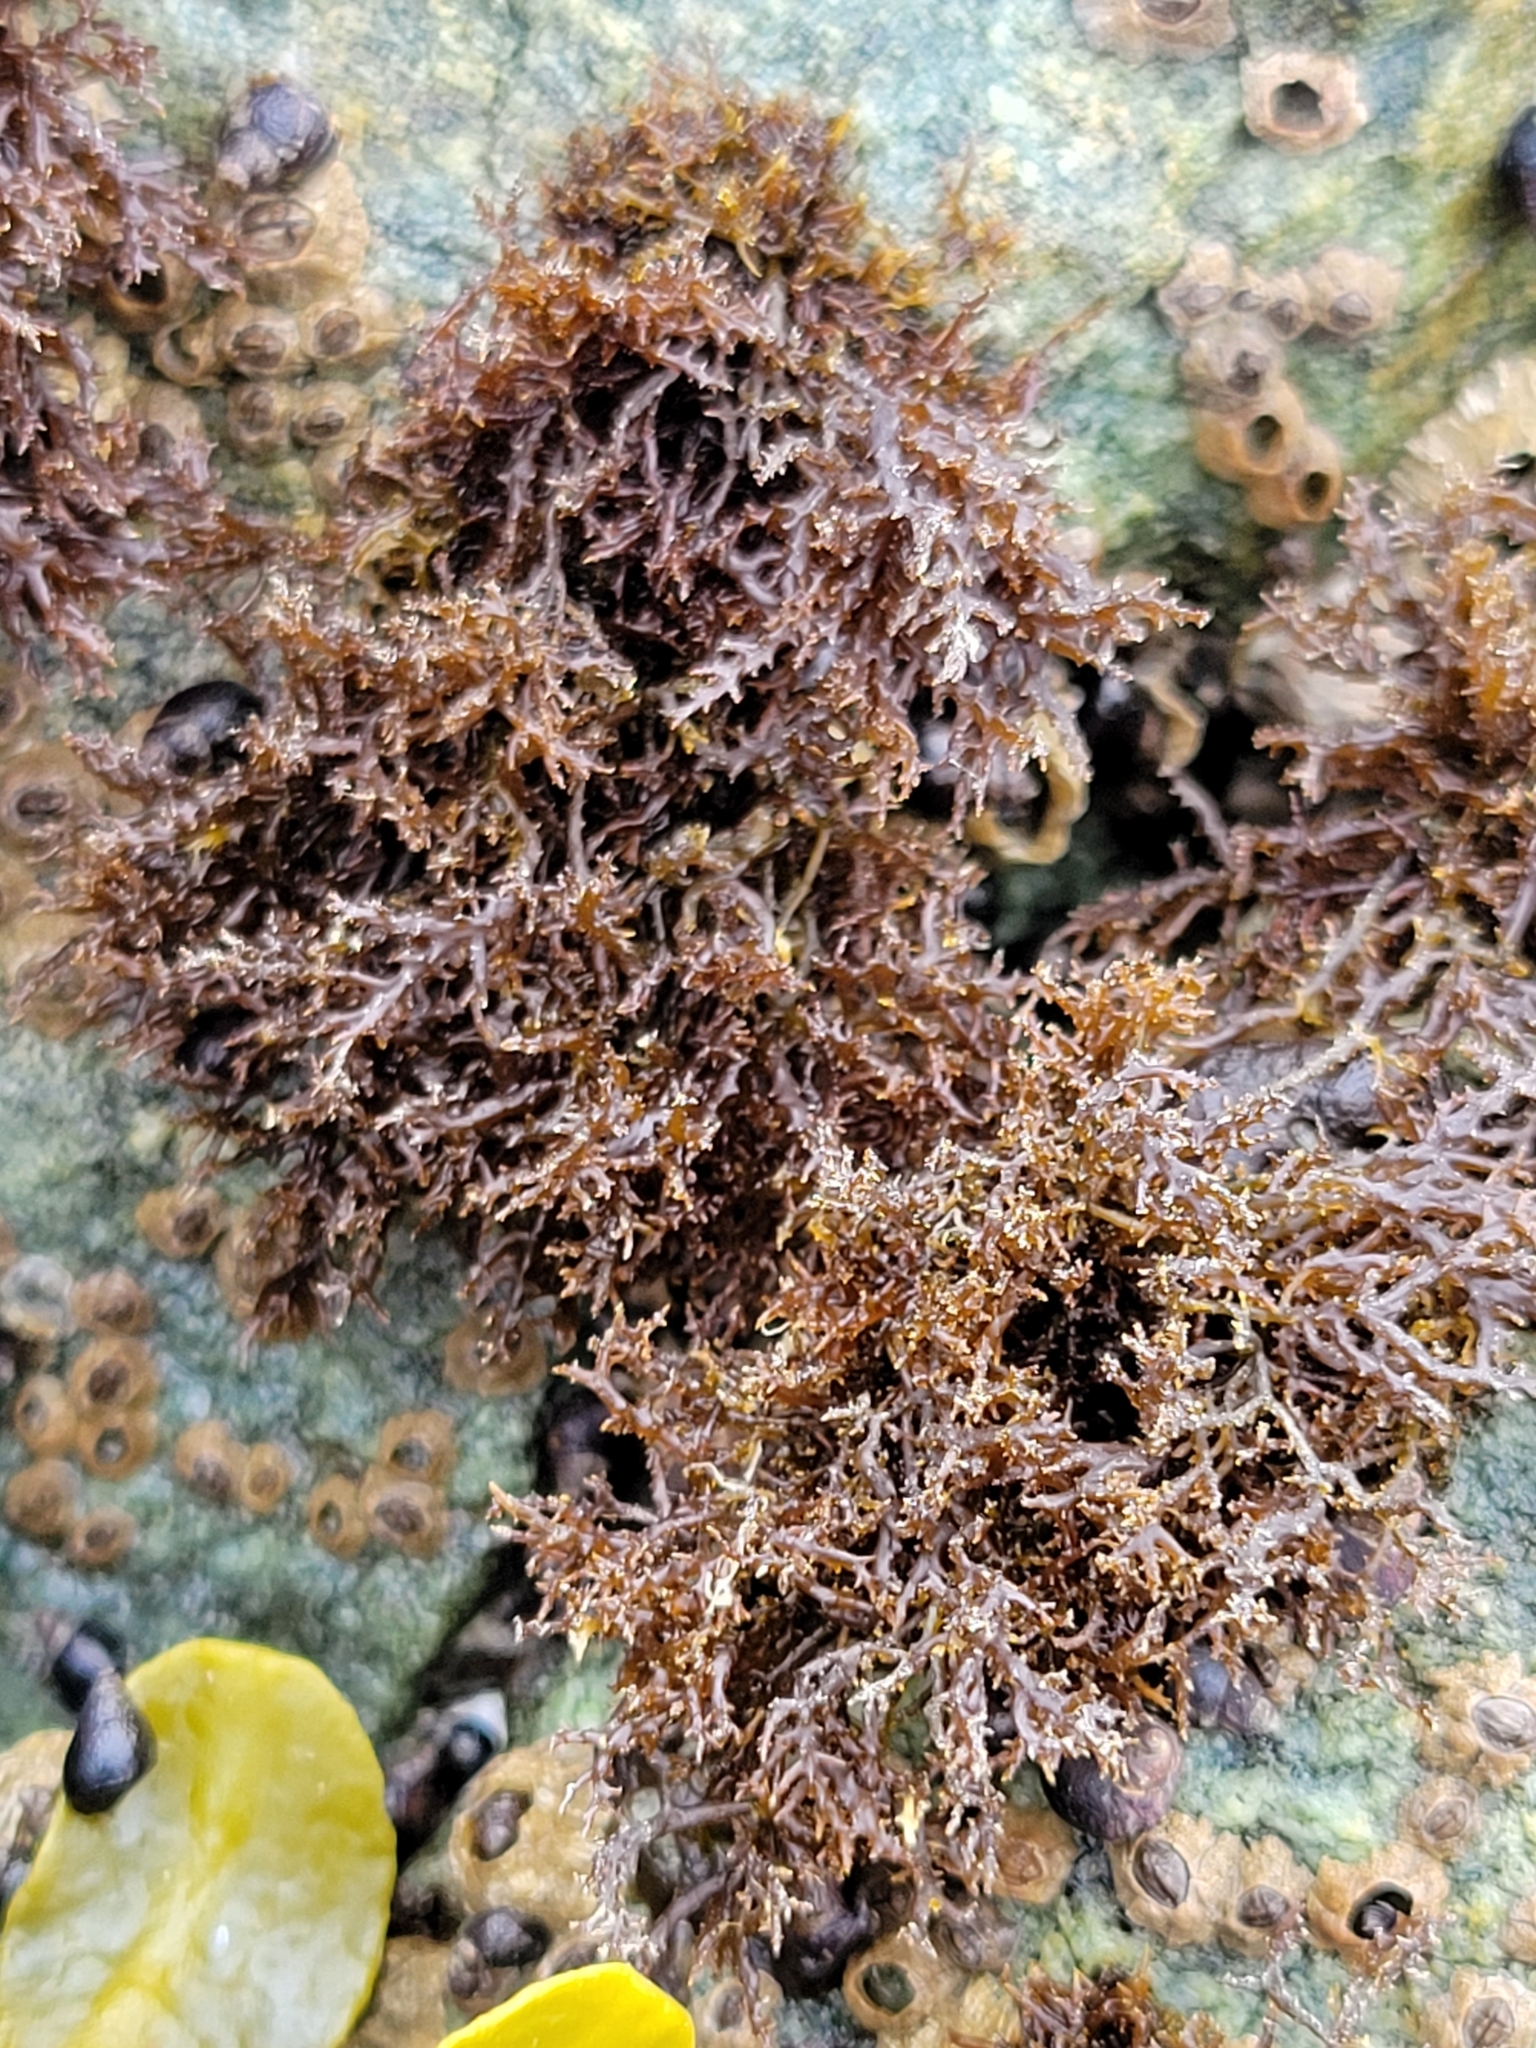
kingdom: Plantae
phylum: Rhodophyta
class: Florideophyceae
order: Gigartinales
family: Endocladiaceae
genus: Endocladia
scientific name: Endocladia muricata
